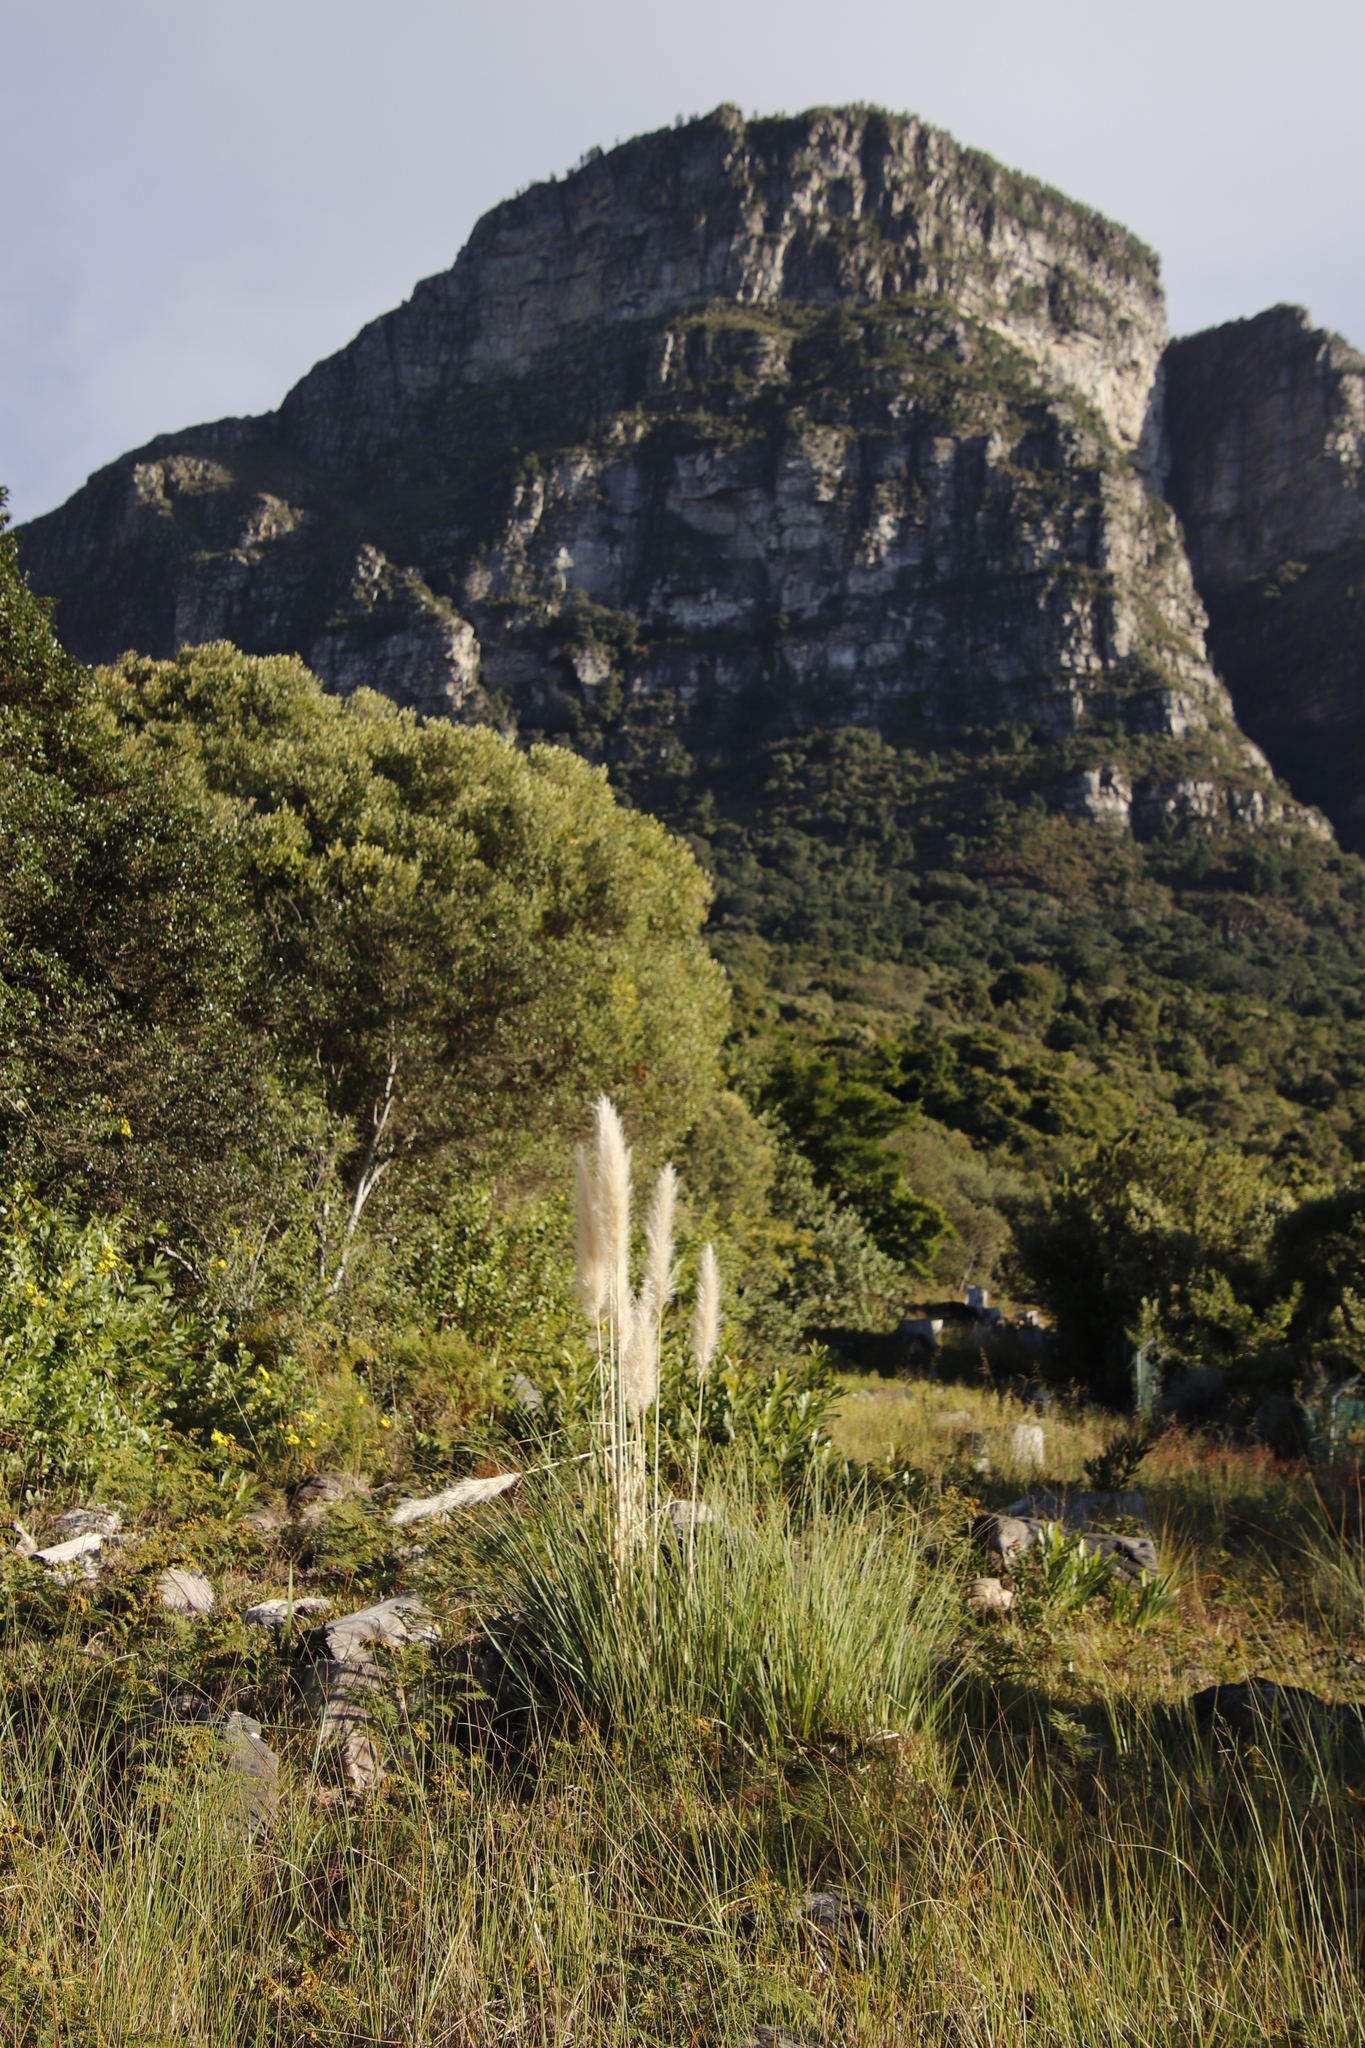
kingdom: Plantae
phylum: Tracheophyta
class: Liliopsida
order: Poales
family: Poaceae
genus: Cortaderia
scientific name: Cortaderia selloana
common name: Uruguayan pampas grass
